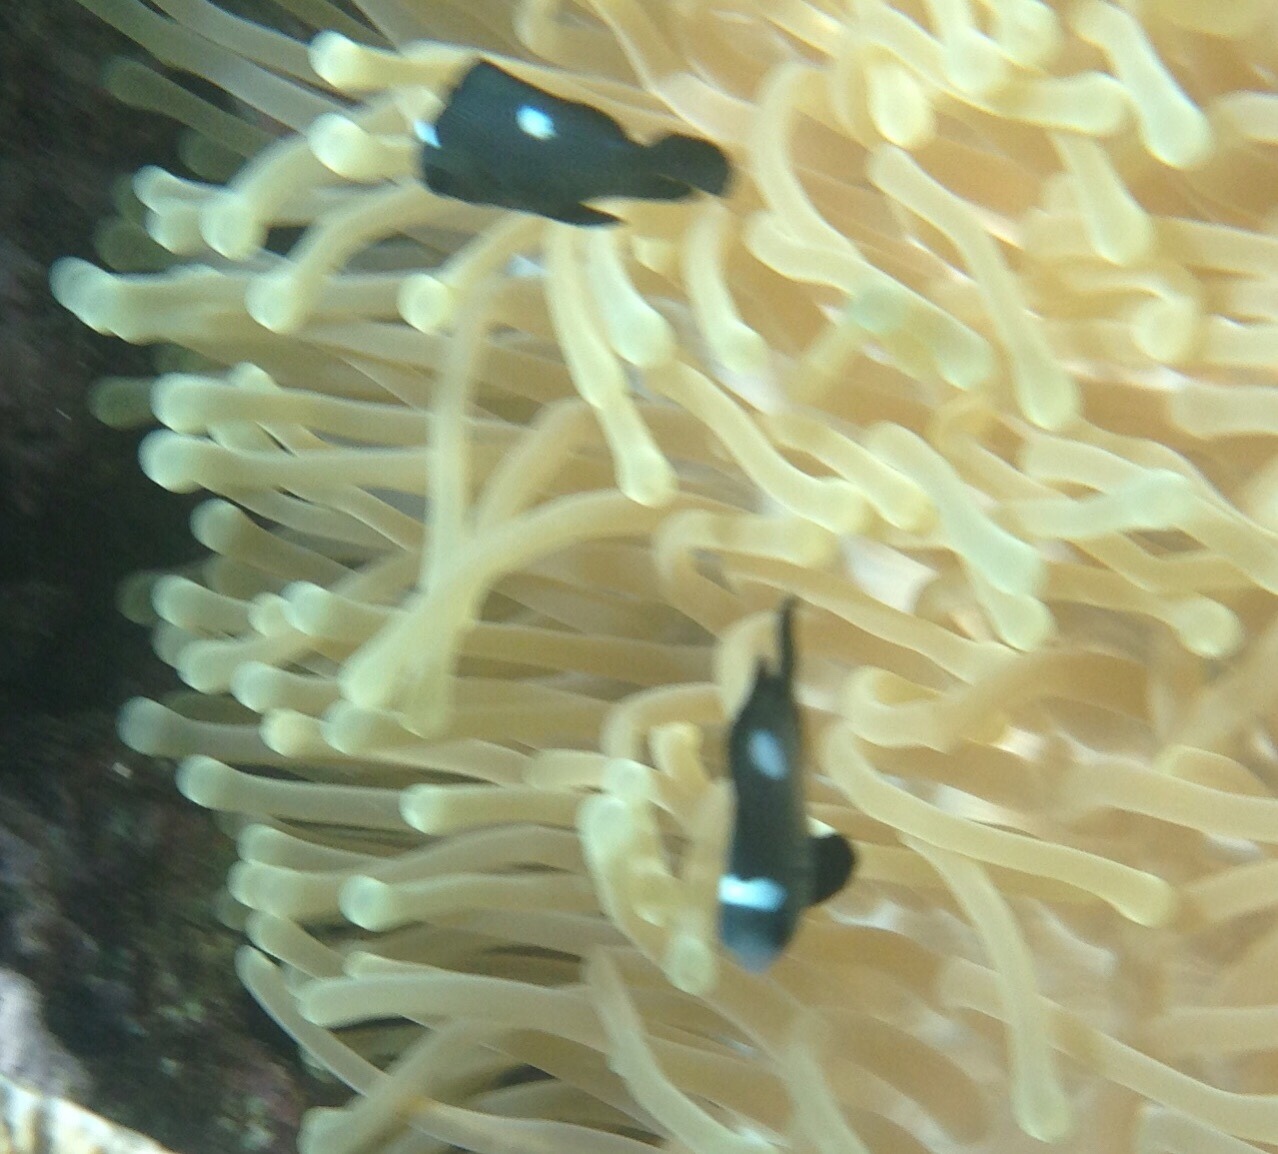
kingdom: Animalia
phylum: Chordata
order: Perciformes
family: Pomacentridae
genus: Dascyllus
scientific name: Dascyllus trimaculatus
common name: Threespot dascyllus
